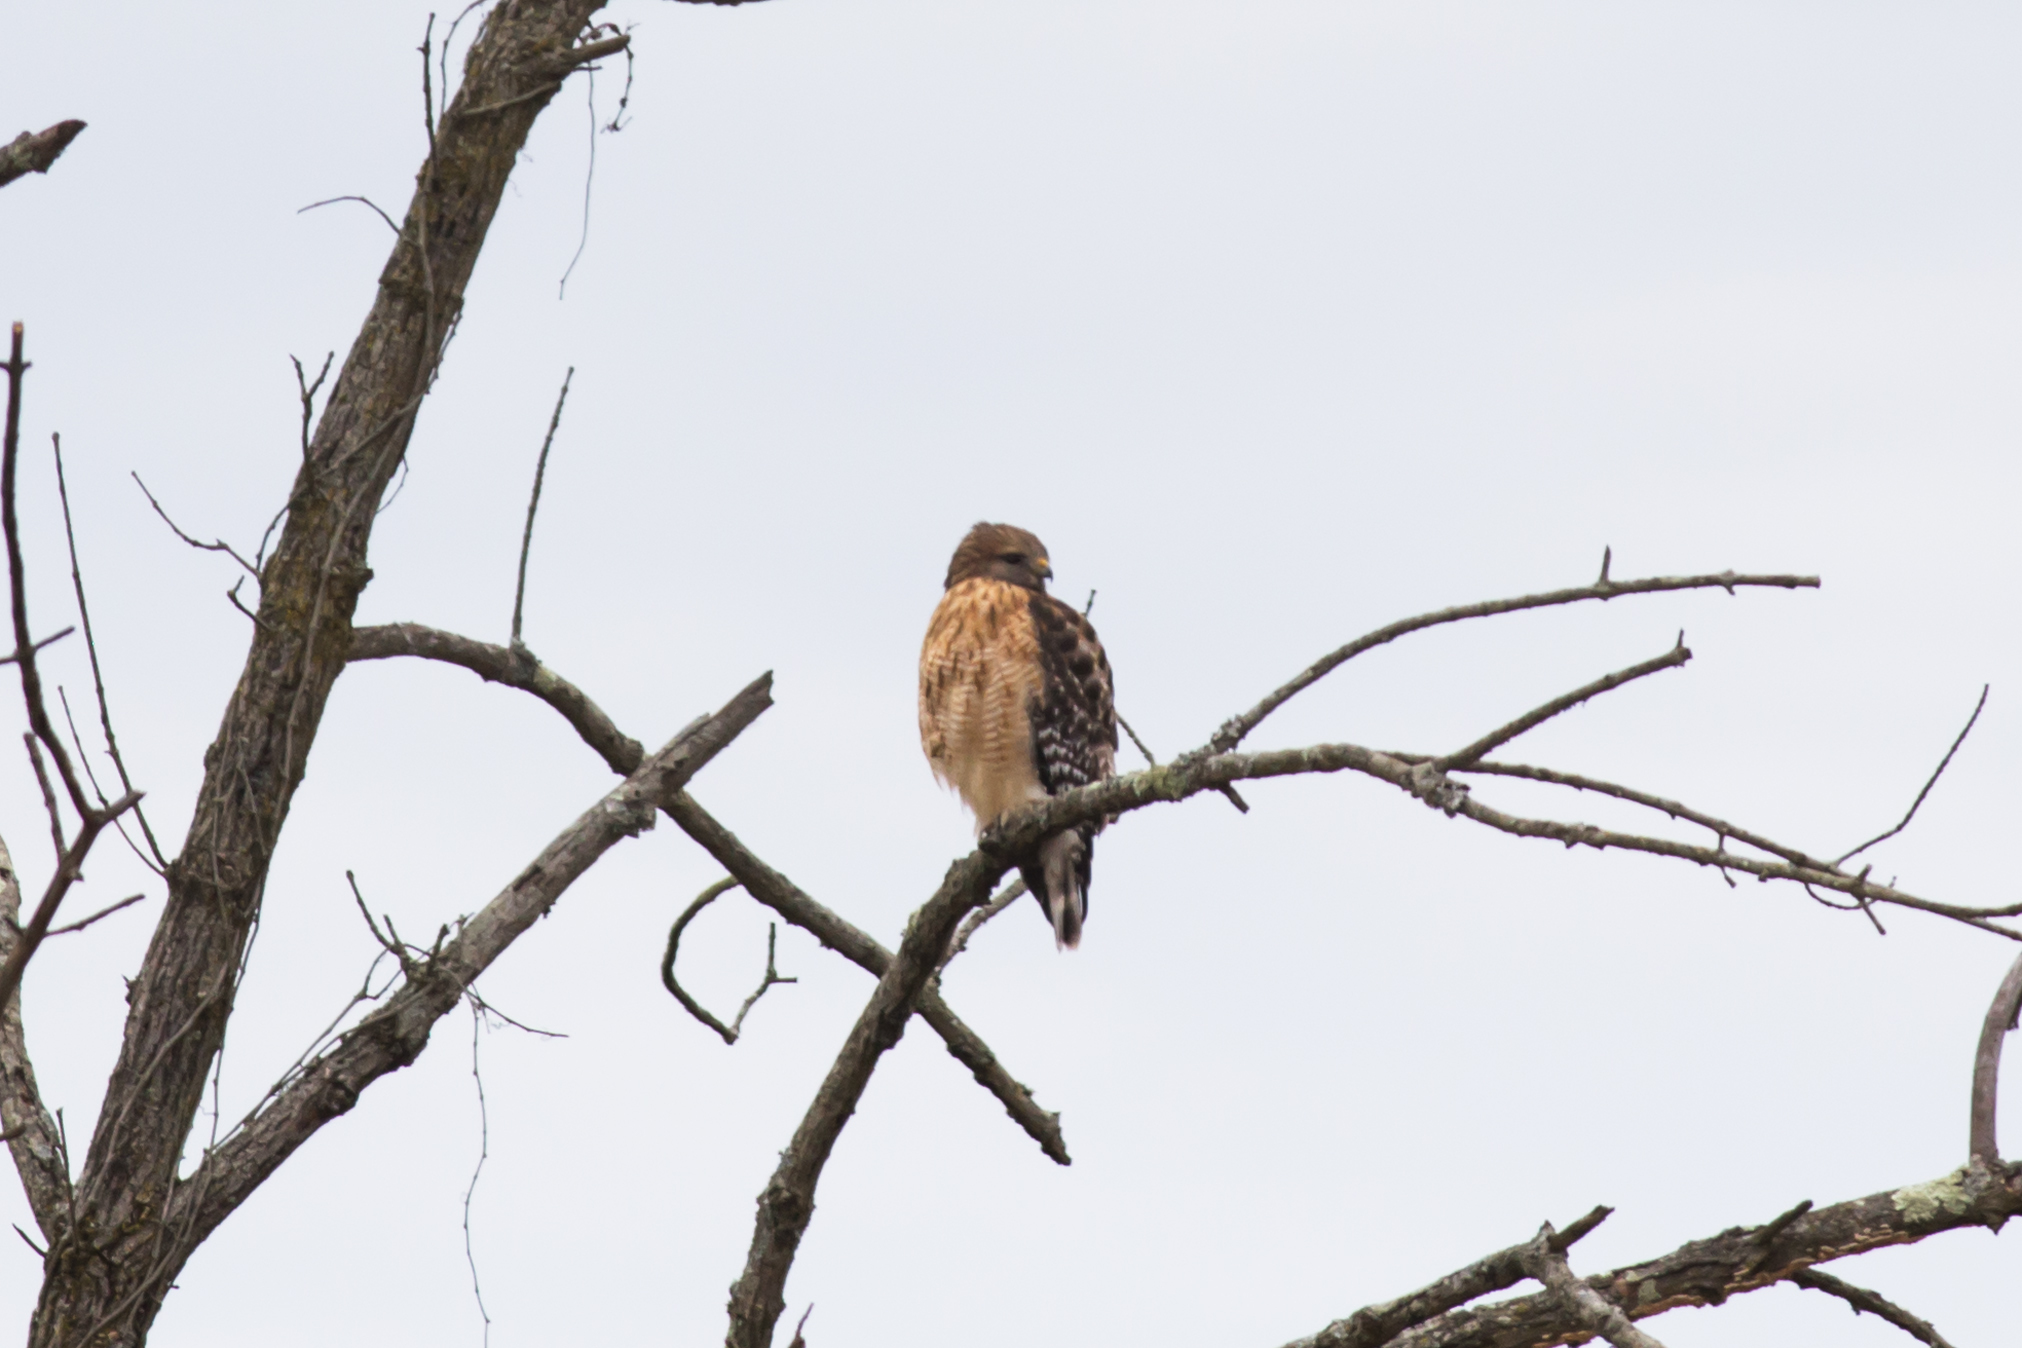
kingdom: Animalia
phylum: Chordata
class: Aves
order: Accipitriformes
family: Accipitridae
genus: Buteo
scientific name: Buteo lineatus
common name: Red-shouldered hawk
